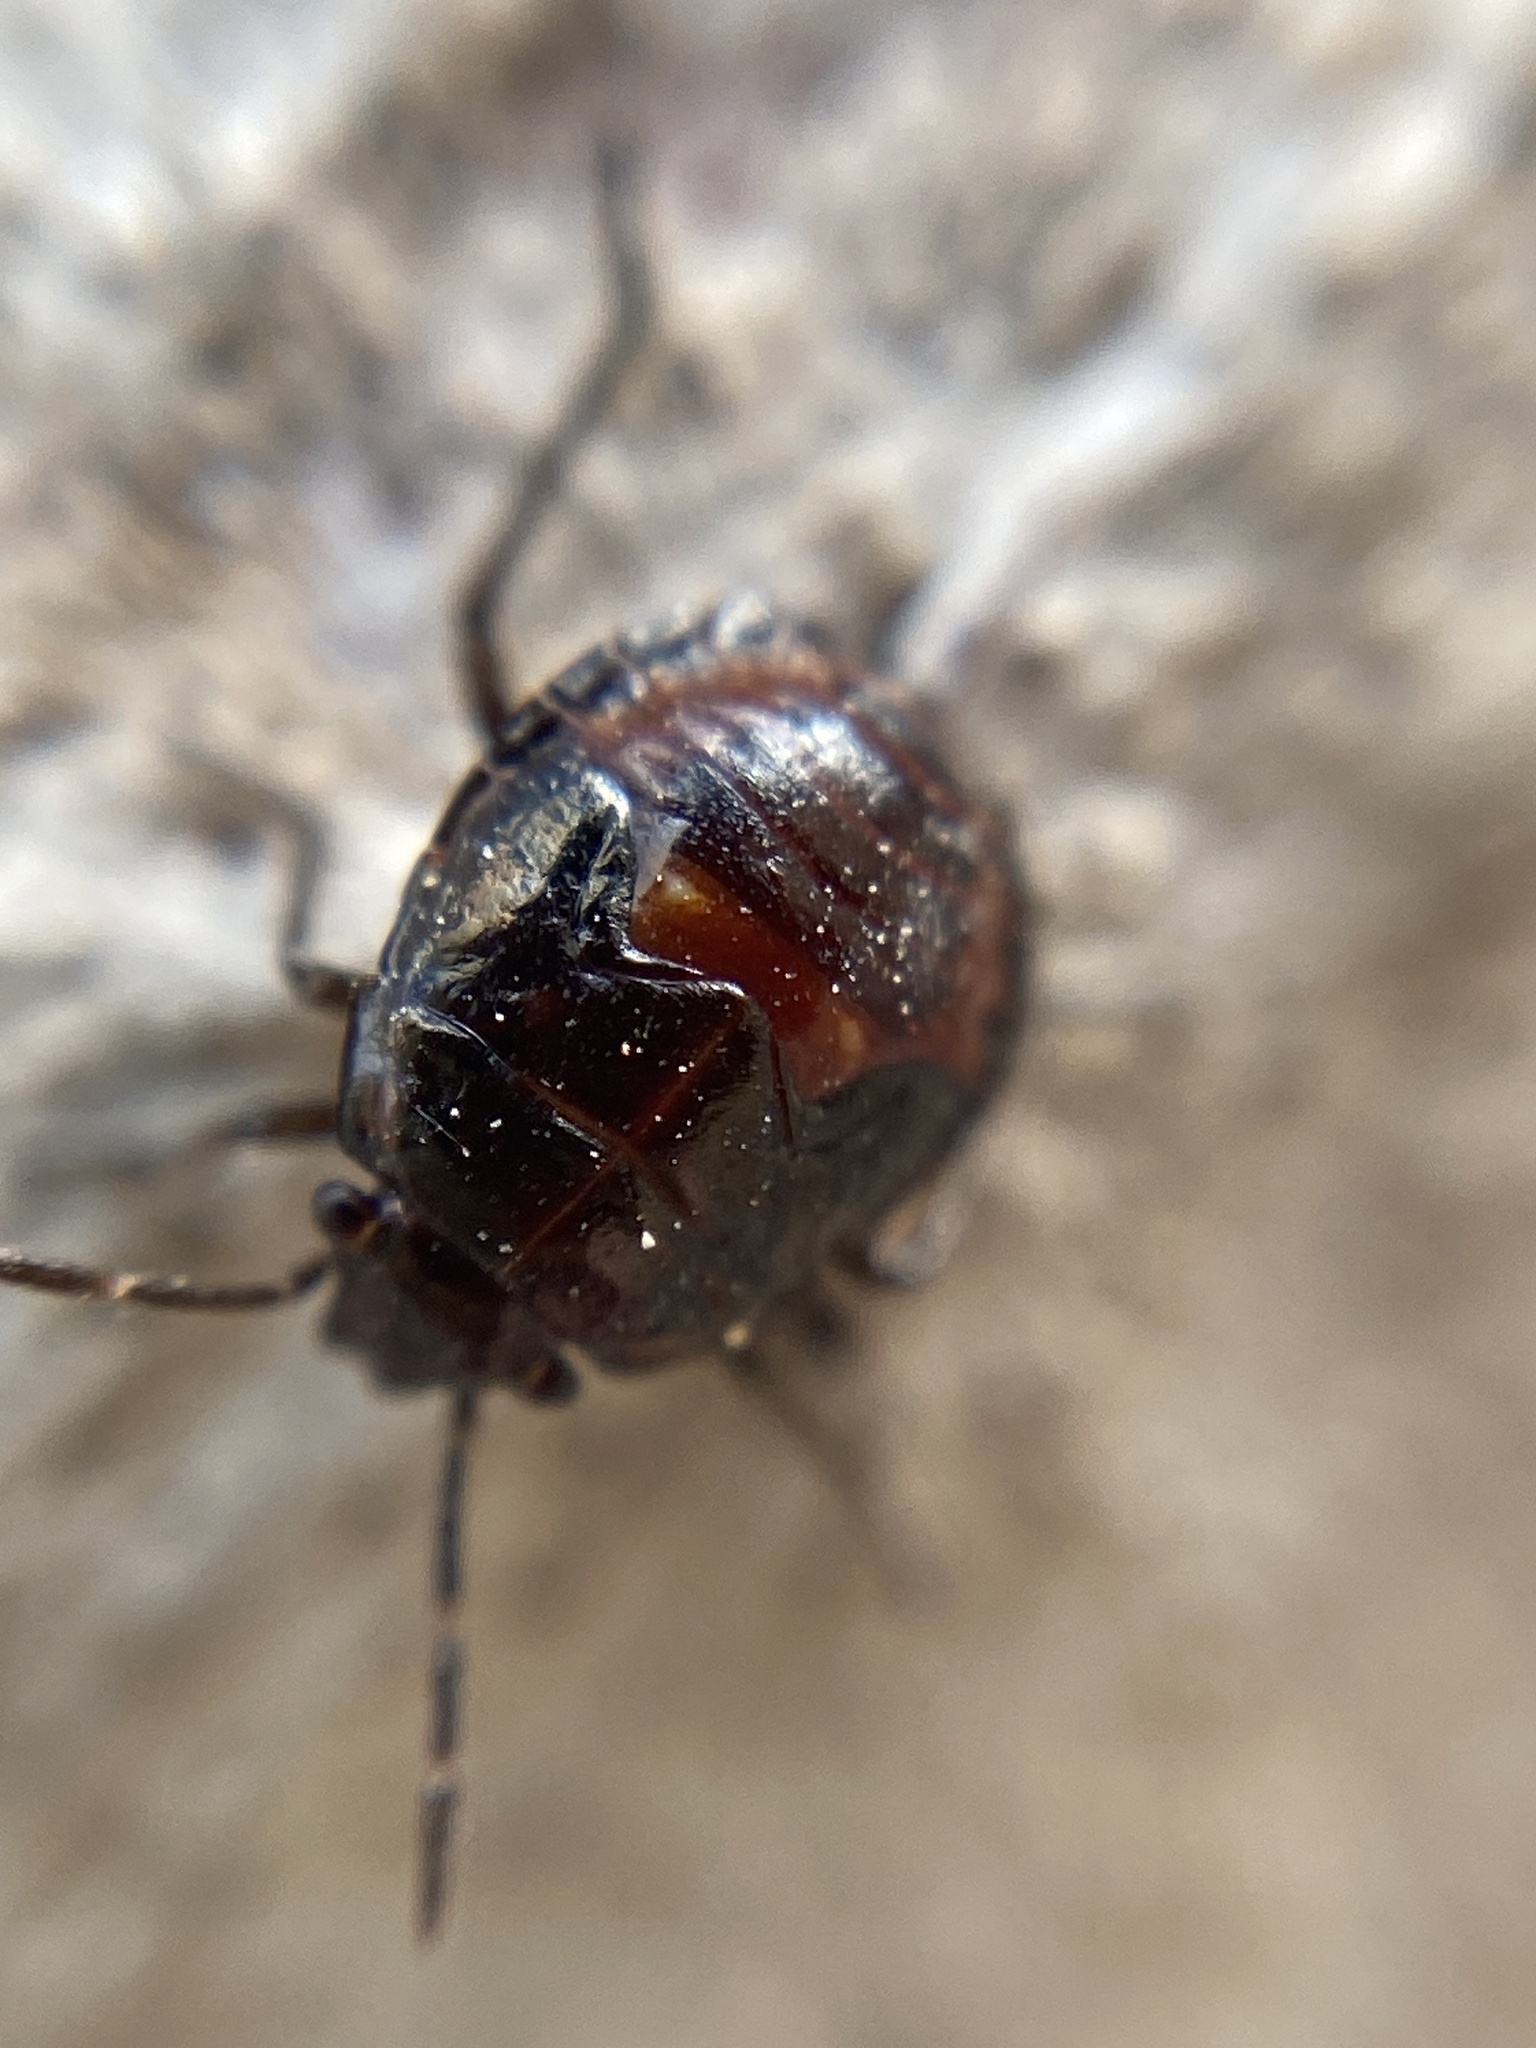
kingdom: Animalia
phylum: Arthropoda
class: Insecta
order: Hemiptera
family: Pentatomidae
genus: Bagrada
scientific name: Bagrada hilaris
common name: Bagrada bug
